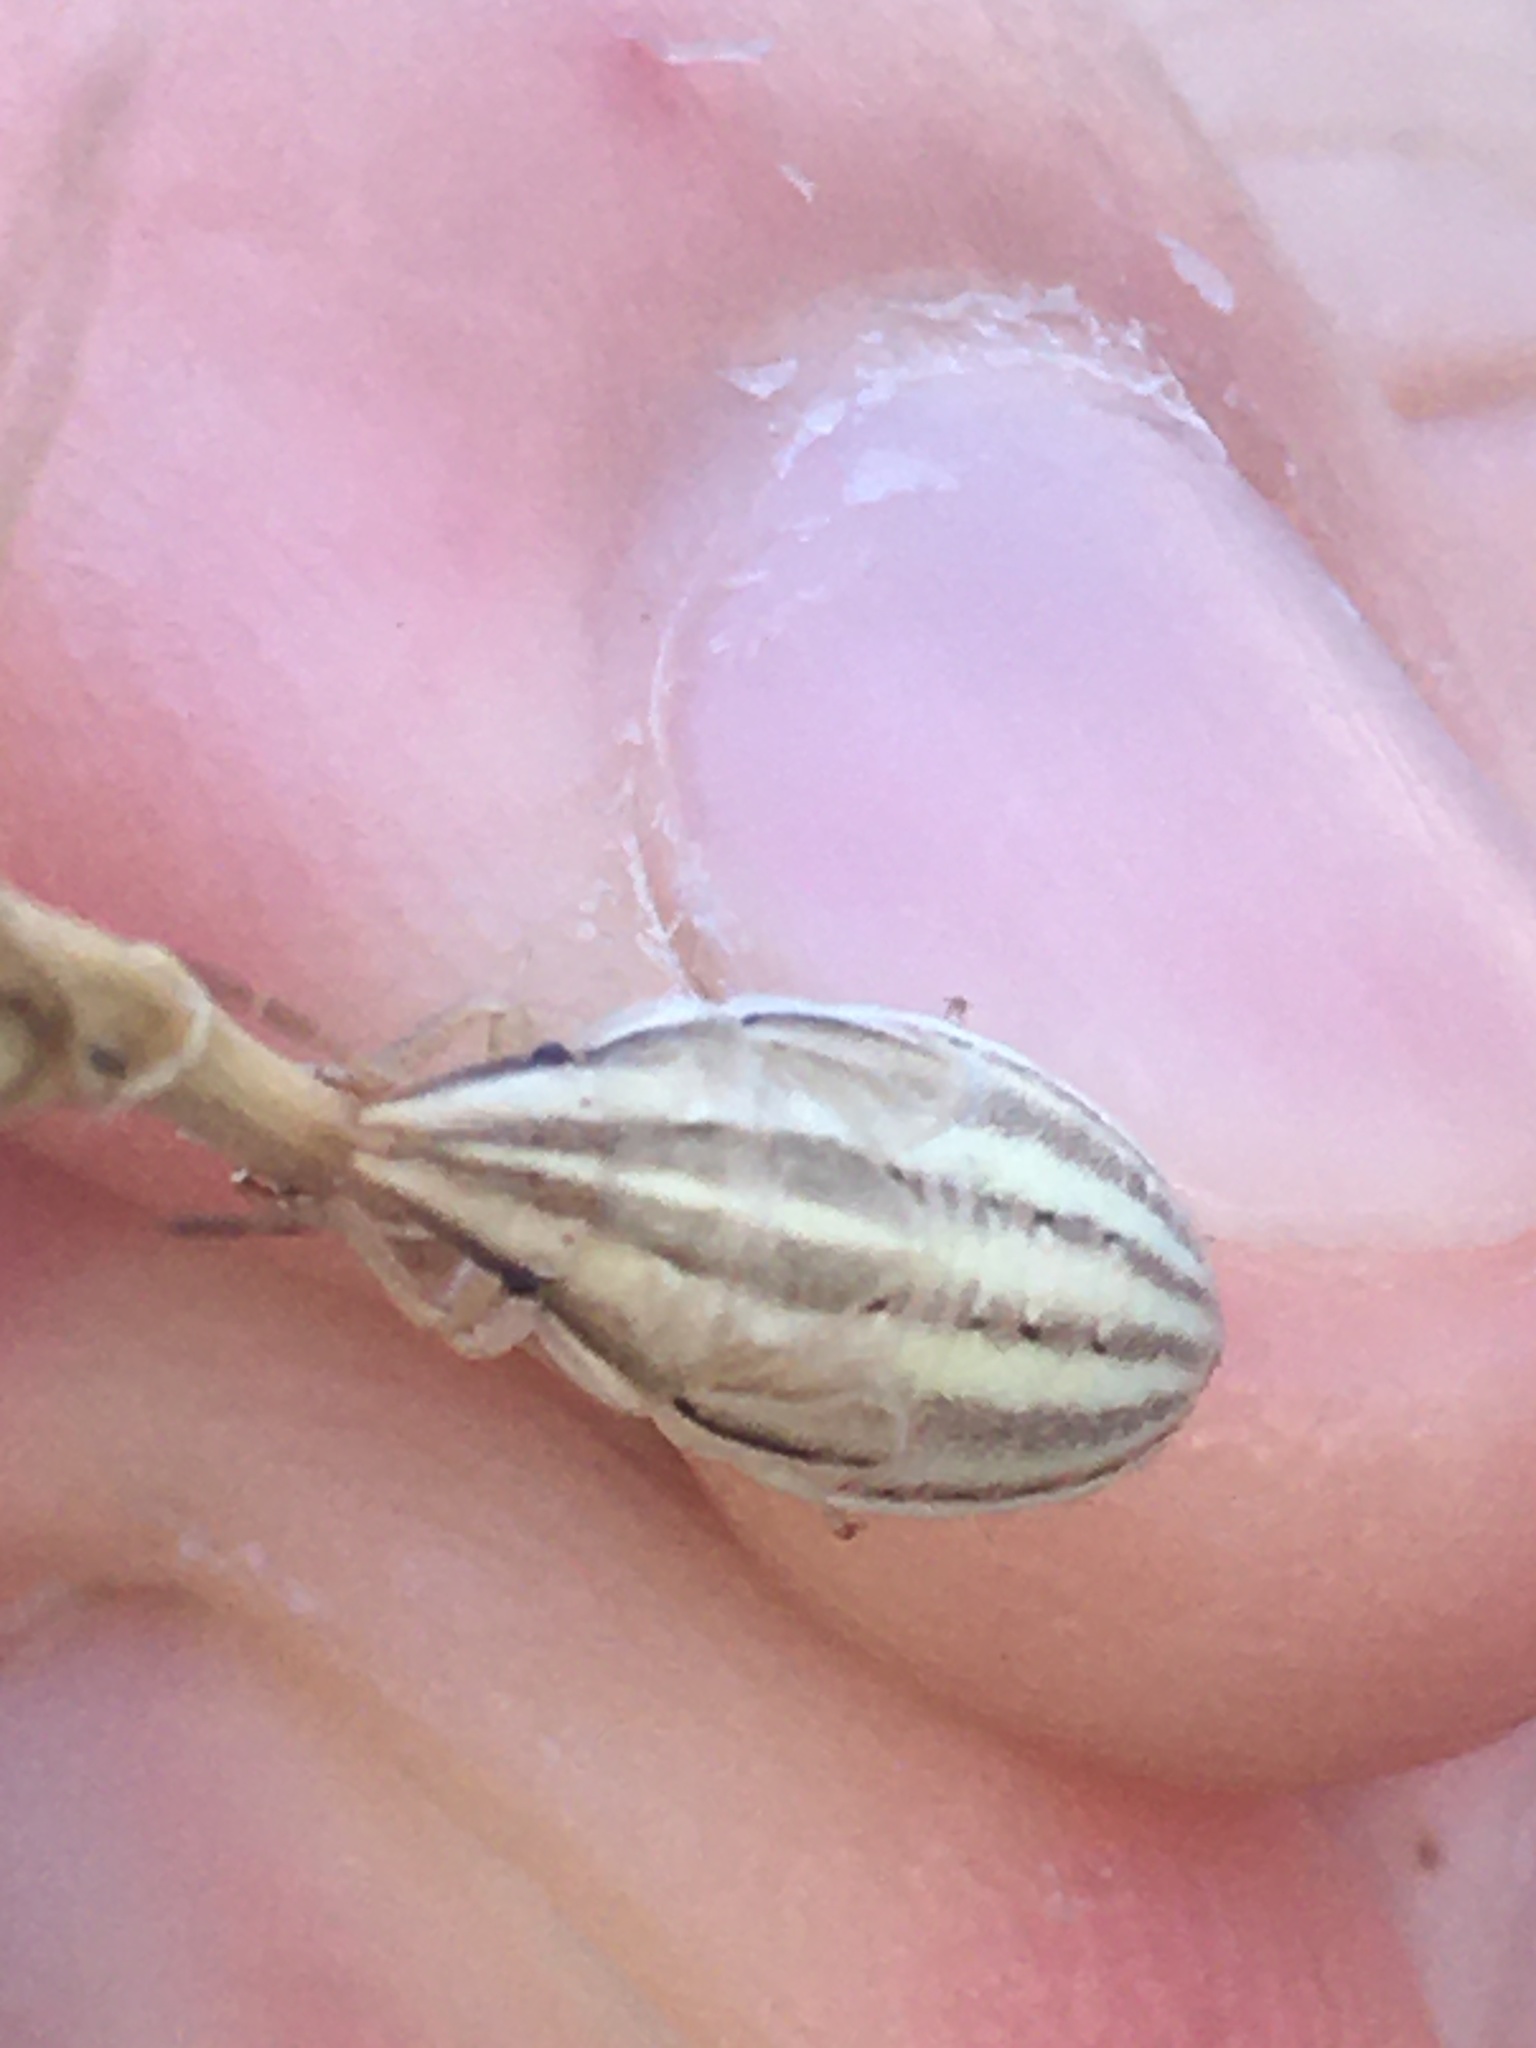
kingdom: Animalia
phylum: Arthropoda
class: Insecta
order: Hemiptera
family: Pentatomidae
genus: Aelia
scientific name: Aelia acuminata
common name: Bishop's mitre
